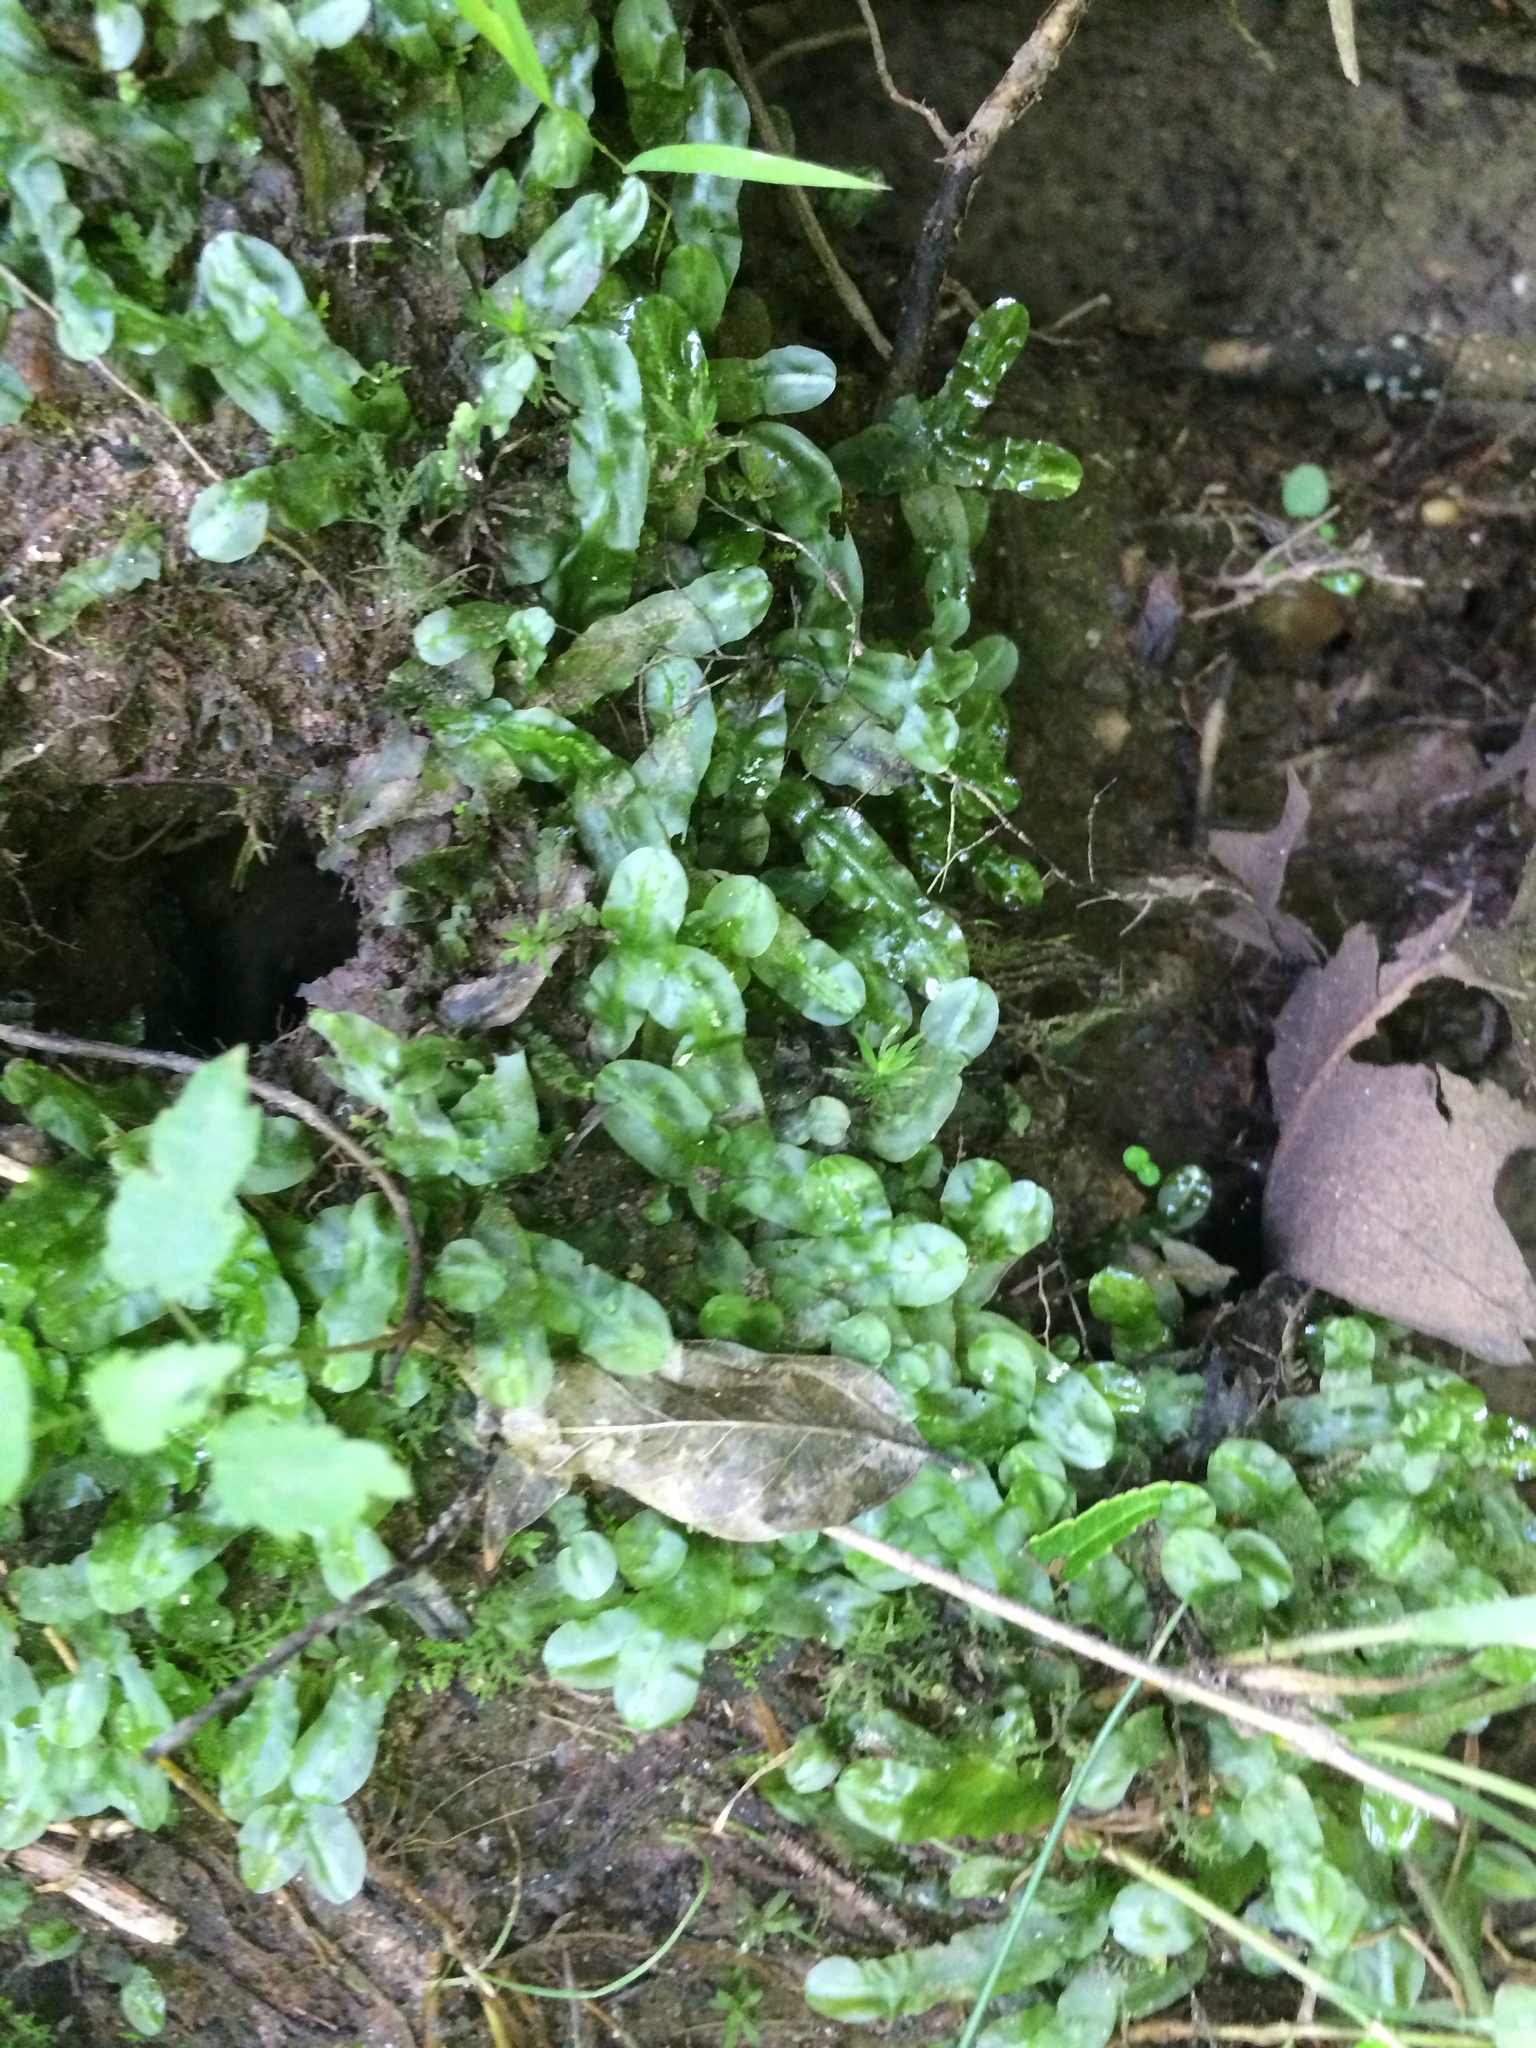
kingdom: Plantae
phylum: Marchantiophyta
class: Jungermanniopsida
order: Pallaviciniales
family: Pallaviciniaceae
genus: Pallavicinia
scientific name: Pallavicinia lyellii
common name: Veilwort
